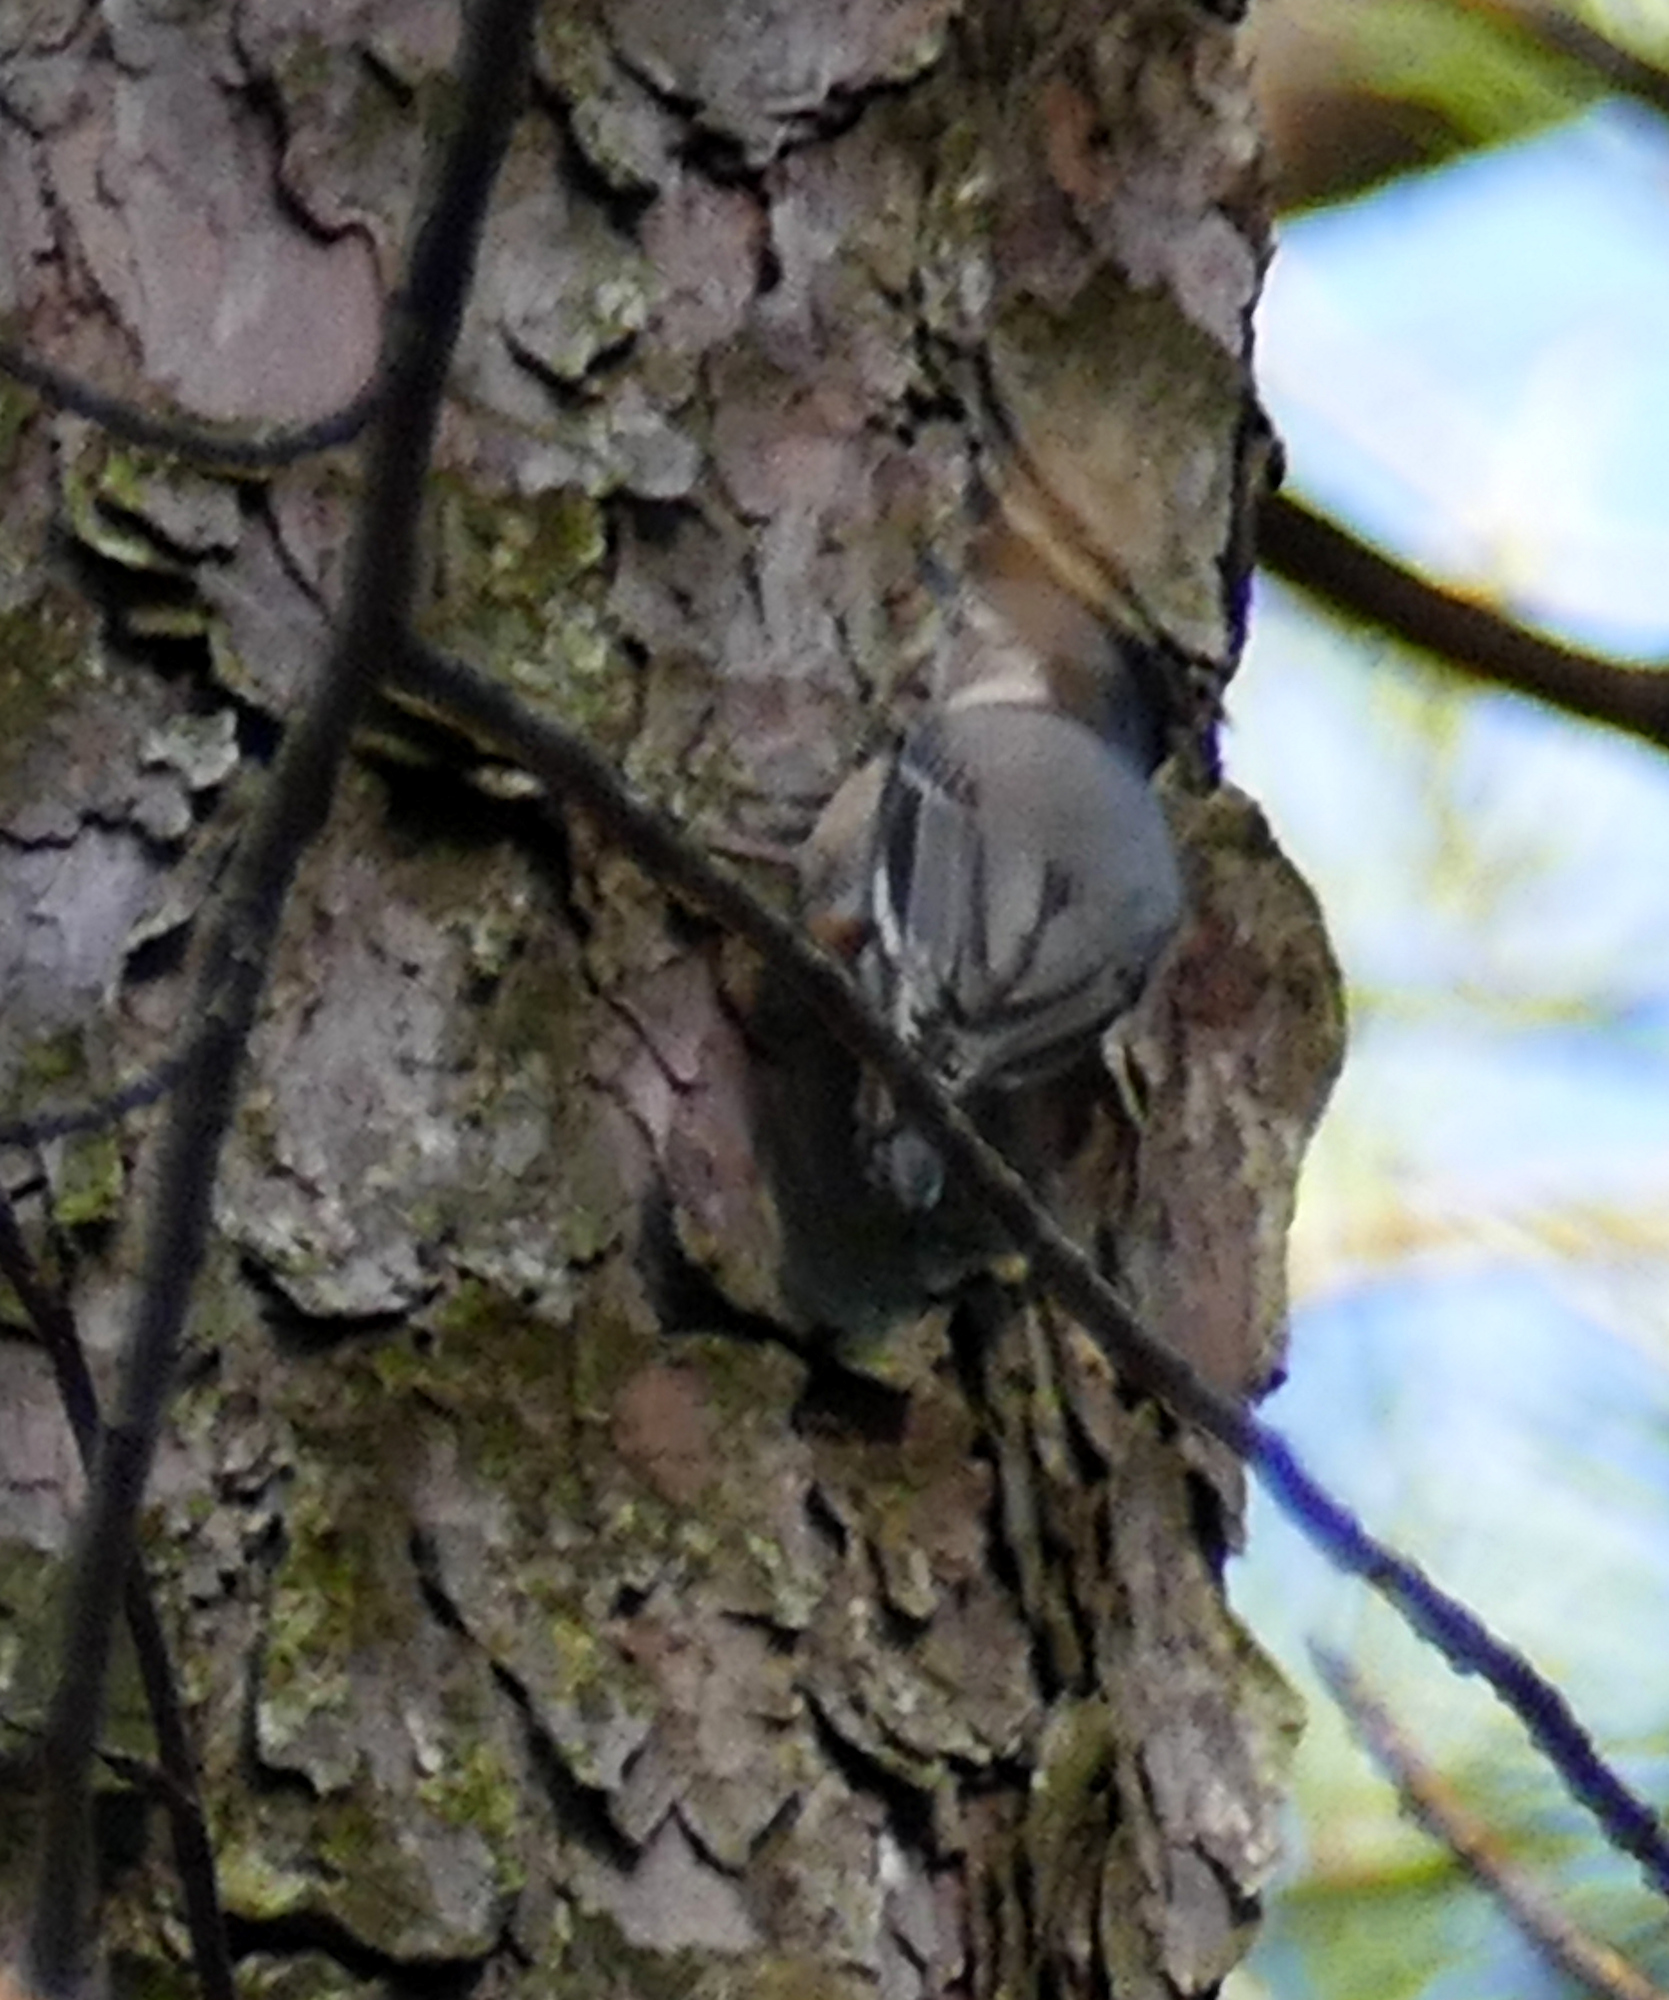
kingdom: Animalia
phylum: Chordata
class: Aves
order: Passeriformes
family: Sittidae
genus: Sitta
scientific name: Sitta carolinensis
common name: White-breasted nuthatch
